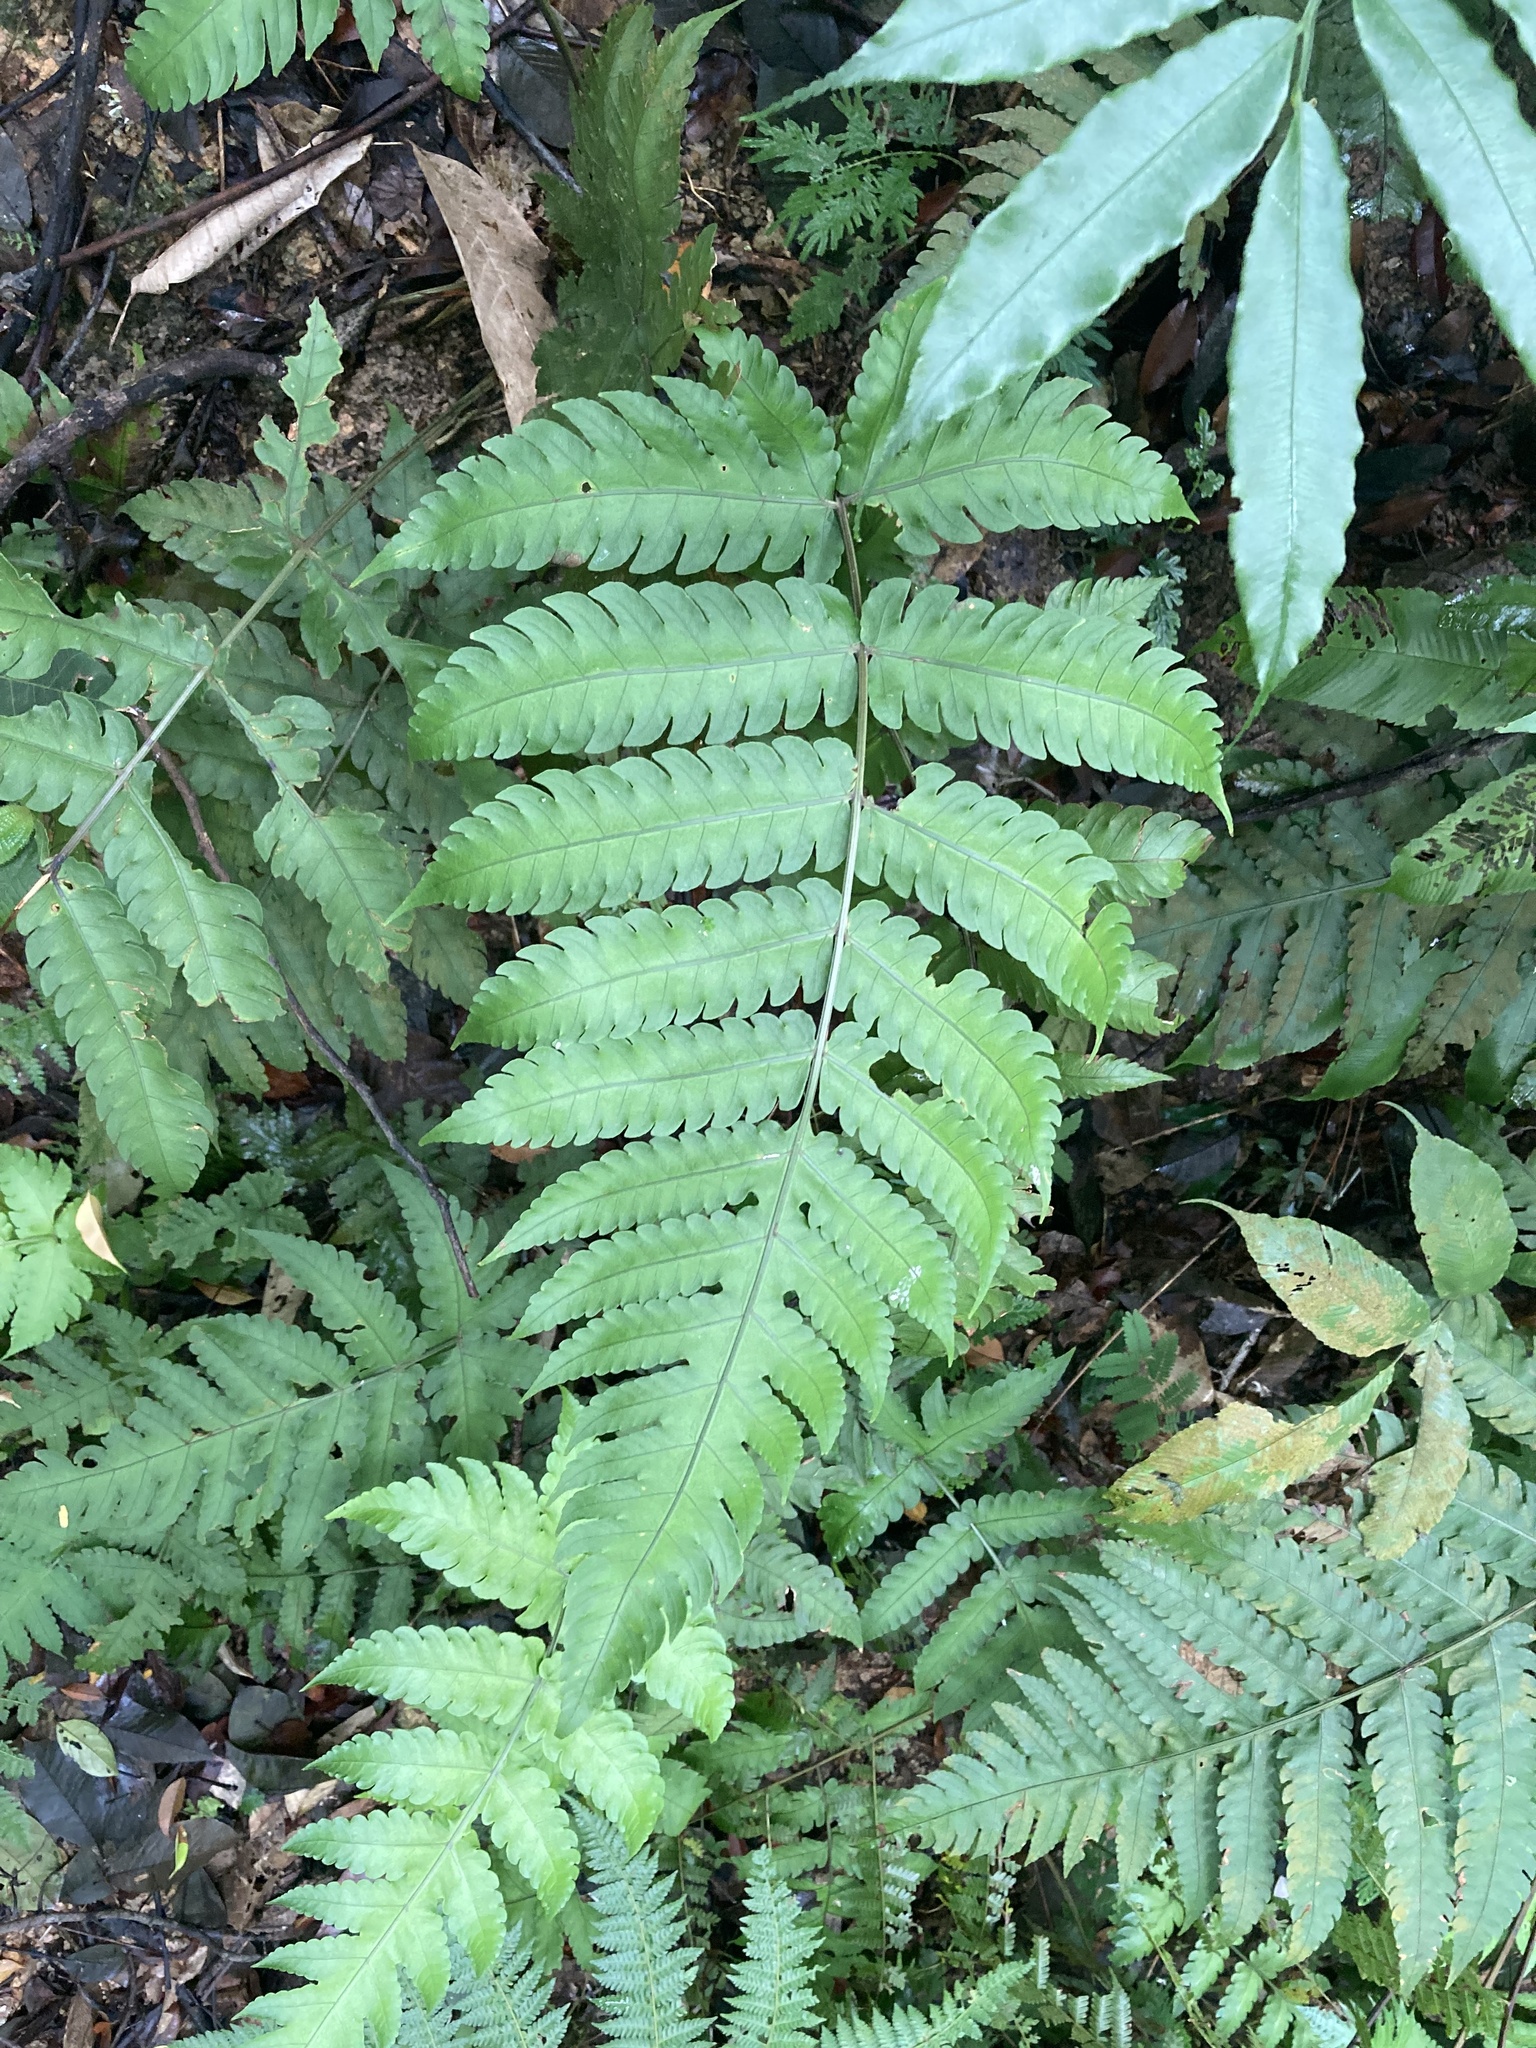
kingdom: Plantae
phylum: Tracheophyta
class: Polypodiopsida
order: Polypodiales
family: Dryopteridaceae
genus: Pleocnemia
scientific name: Pleocnemia irregularis
